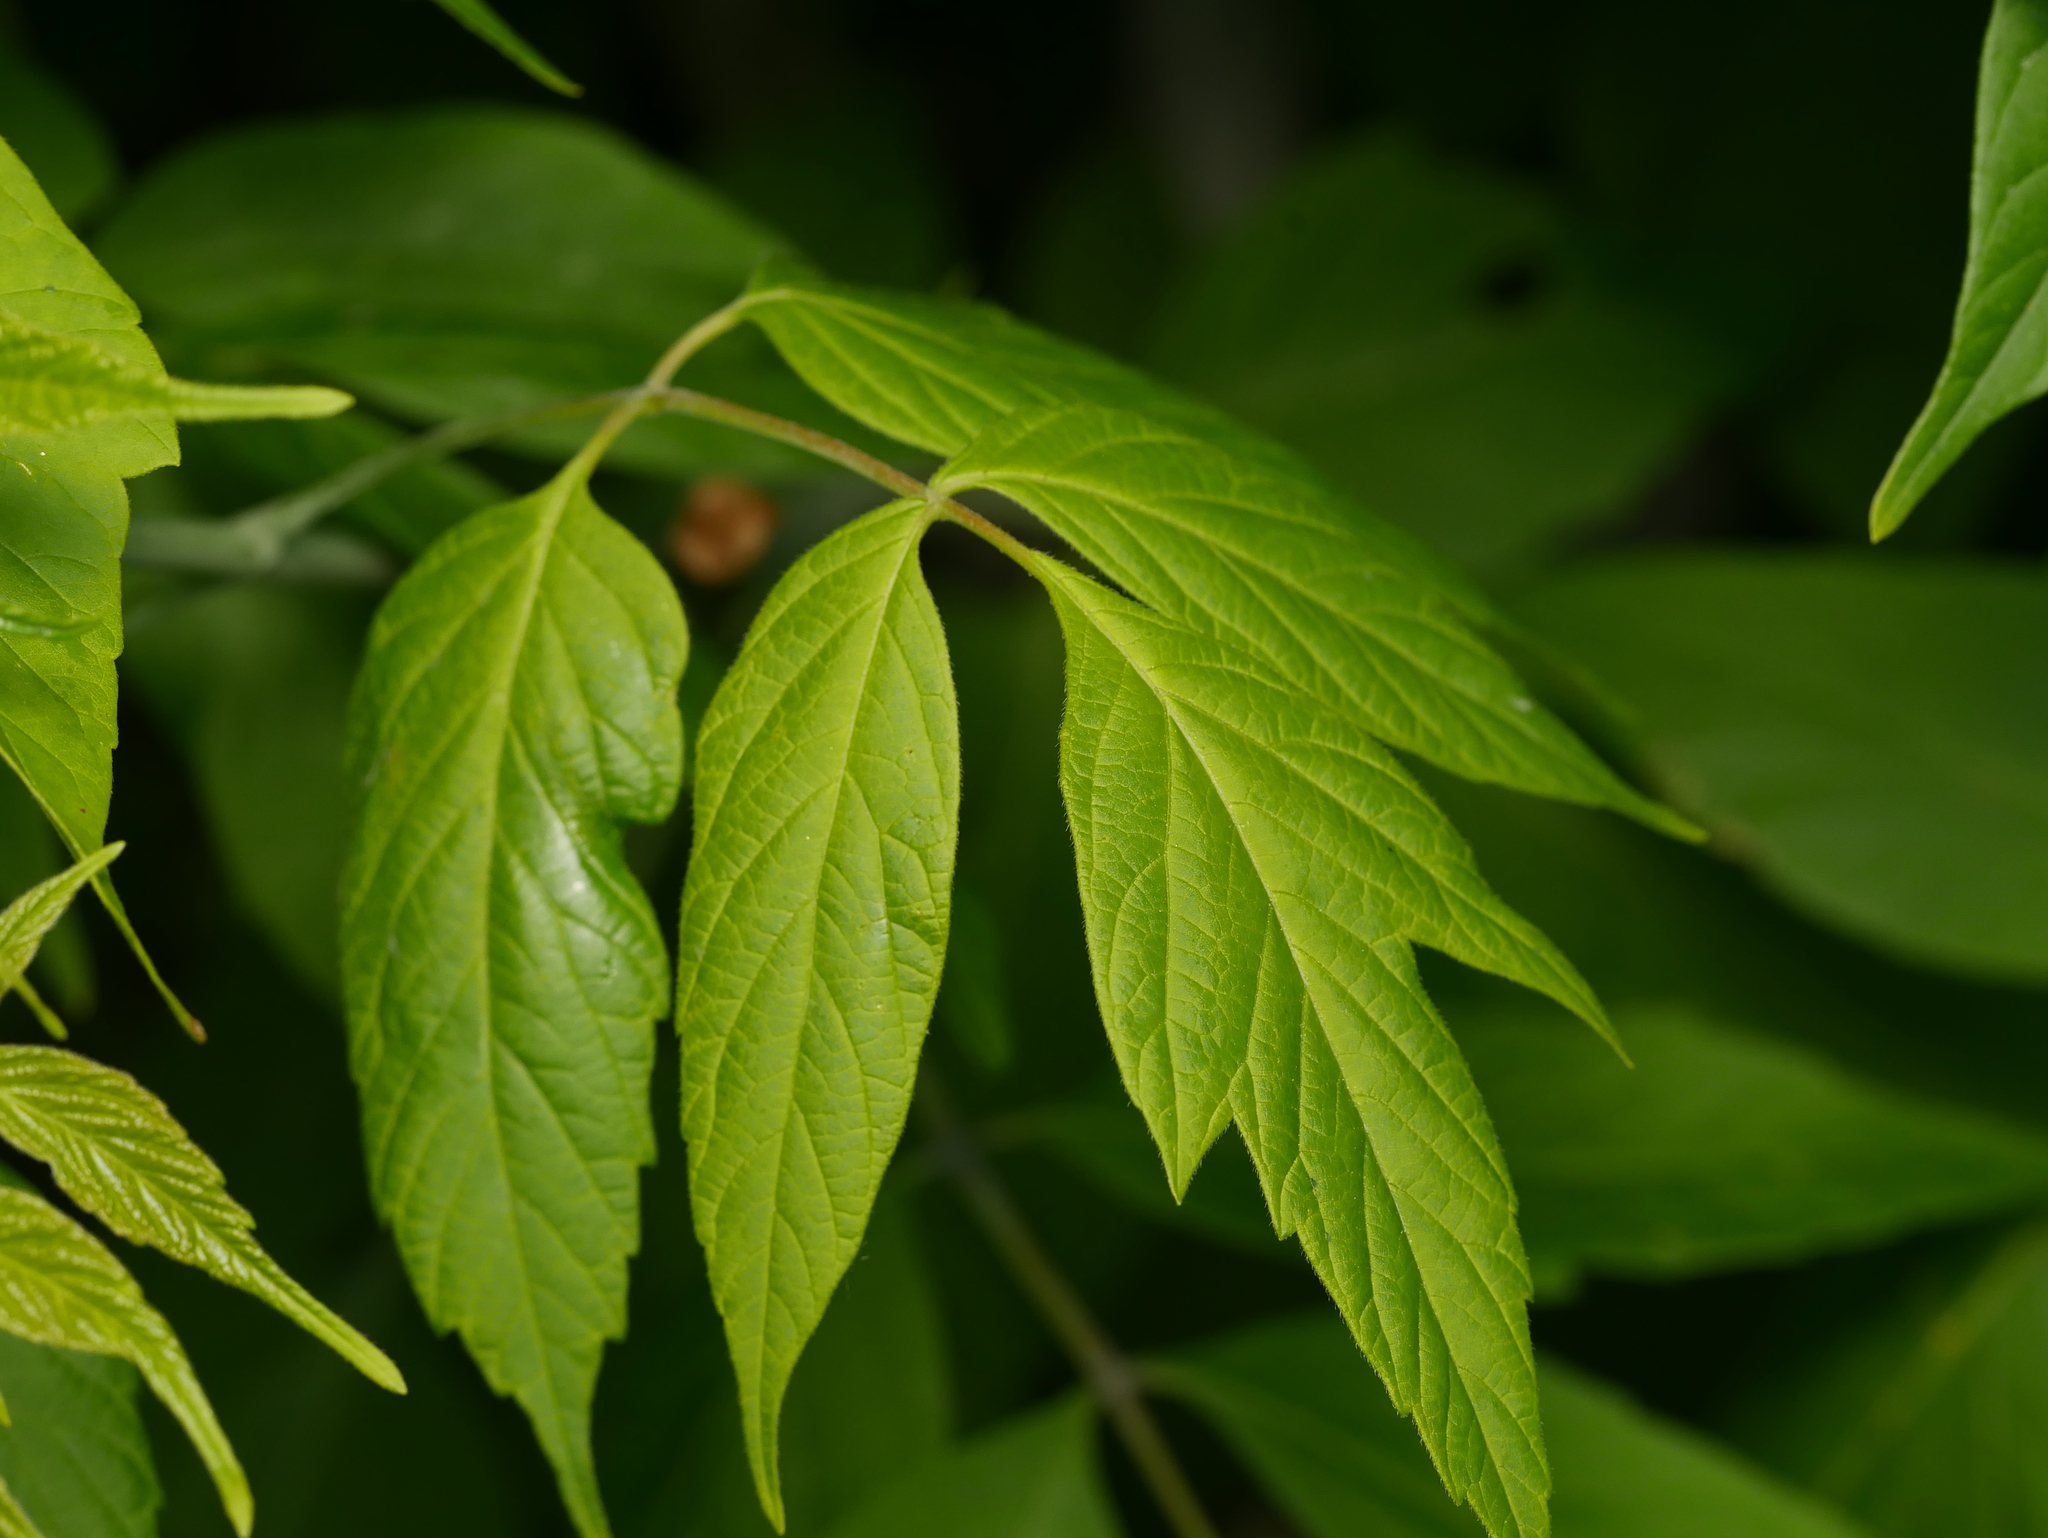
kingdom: Plantae
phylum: Tracheophyta
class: Magnoliopsida
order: Sapindales
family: Sapindaceae
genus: Acer
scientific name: Acer negundo
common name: Ashleaf maple
